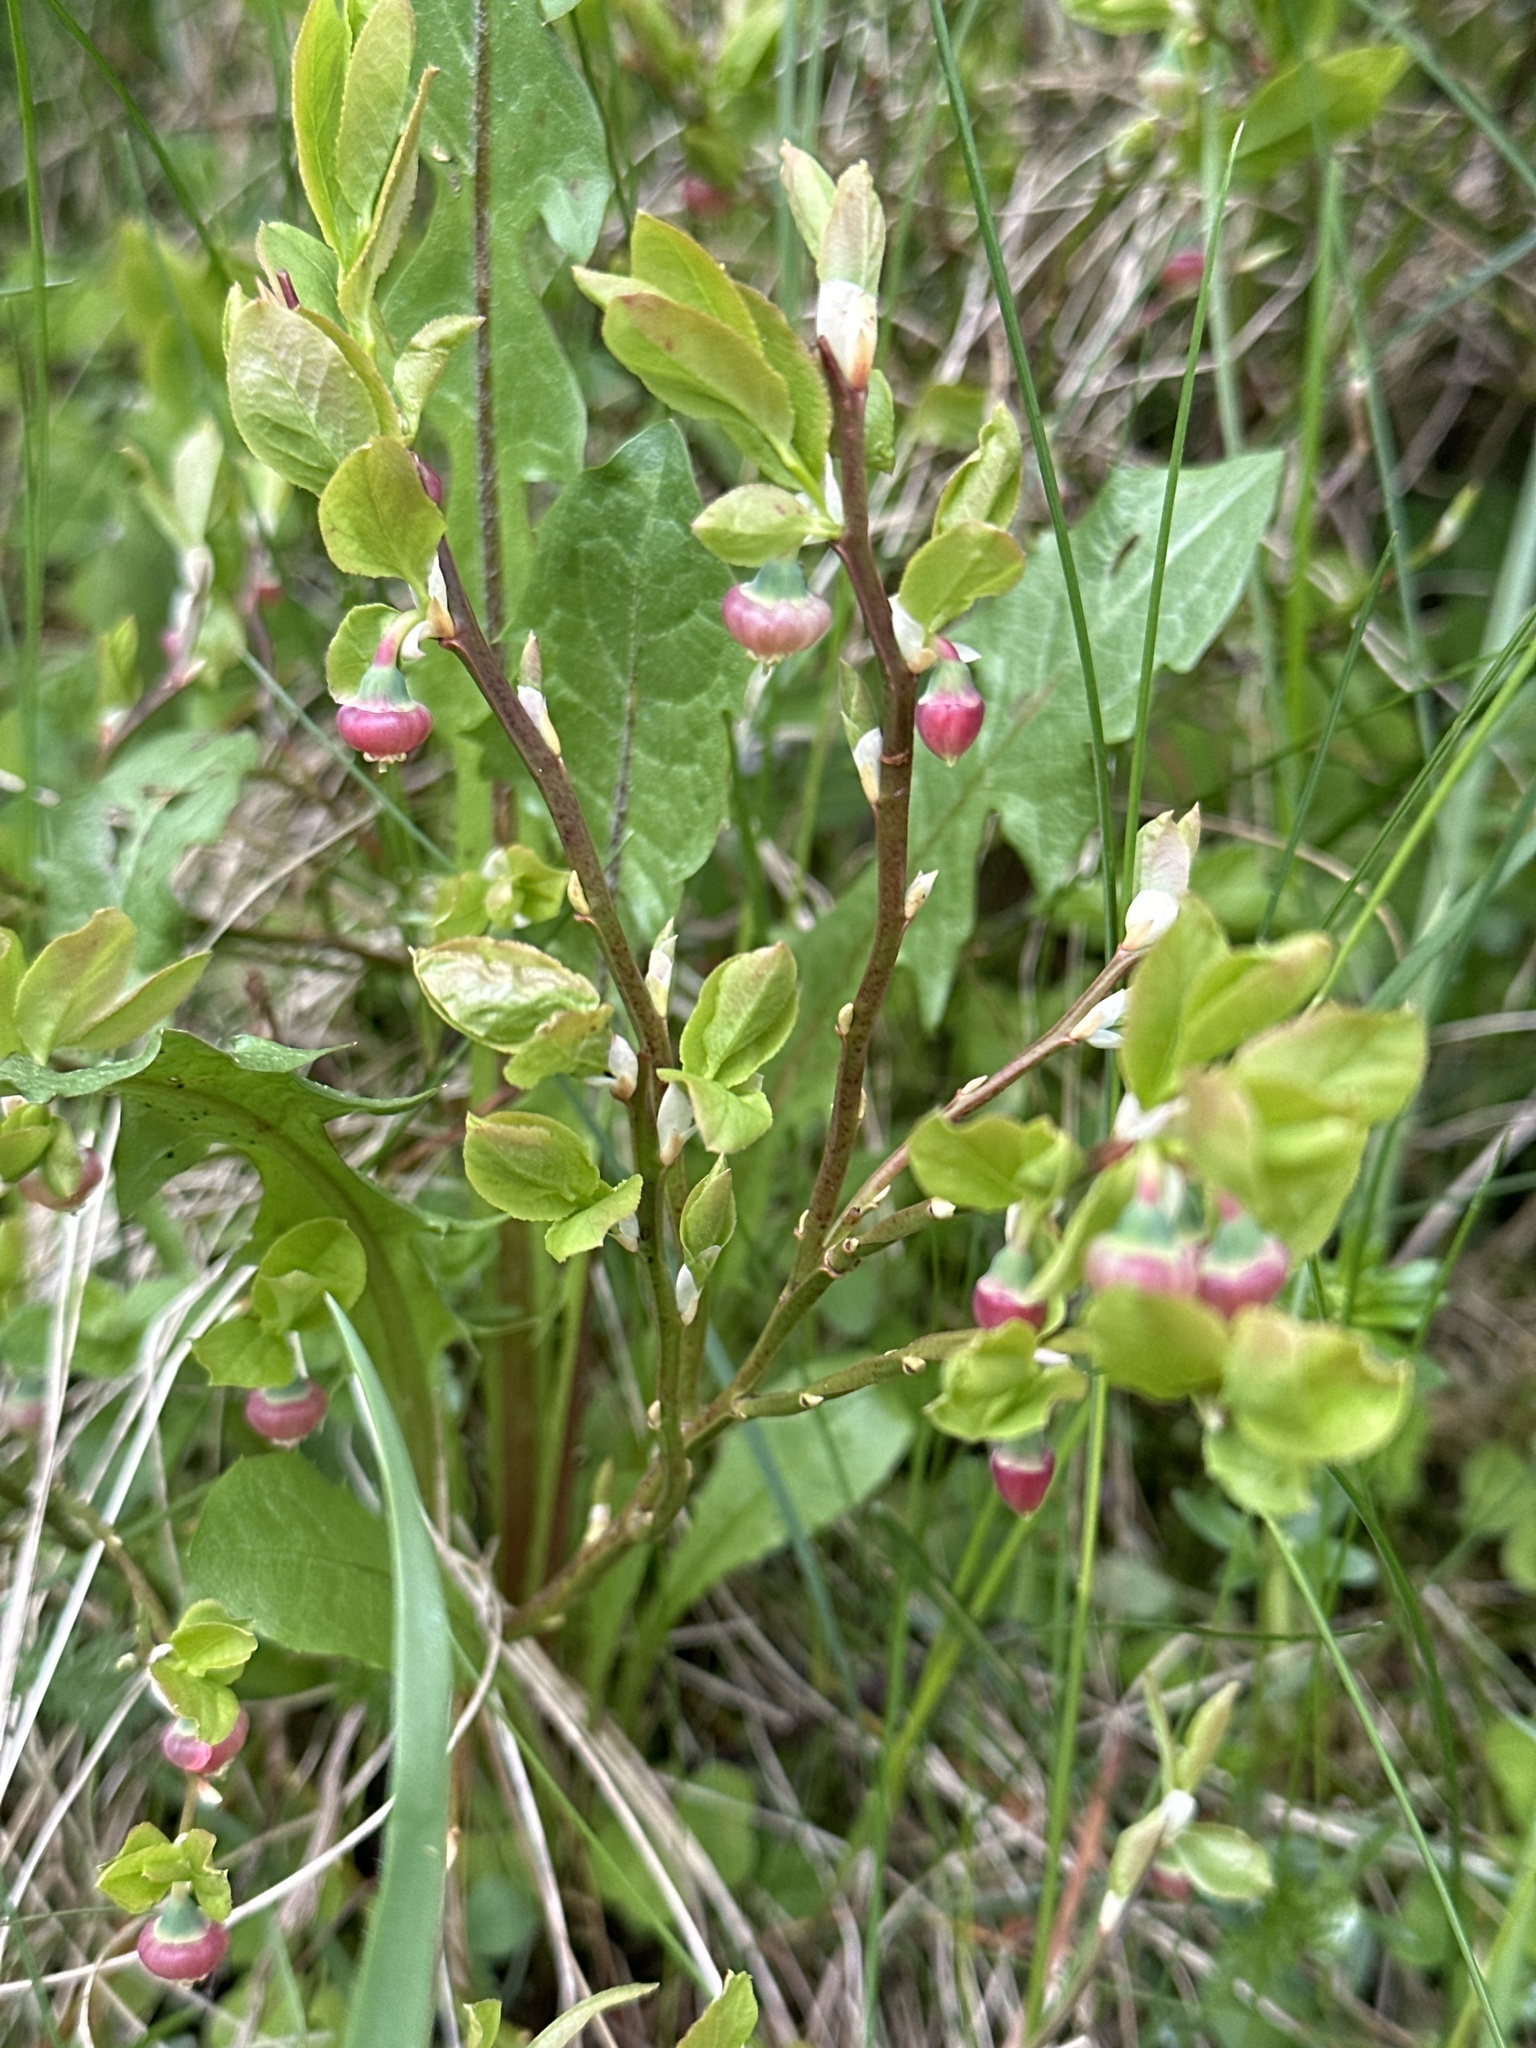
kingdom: Plantae
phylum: Tracheophyta
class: Magnoliopsida
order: Ericales
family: Ericaceae
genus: Vaccinium
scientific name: Vaccinium myrtillus
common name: Bilberry
